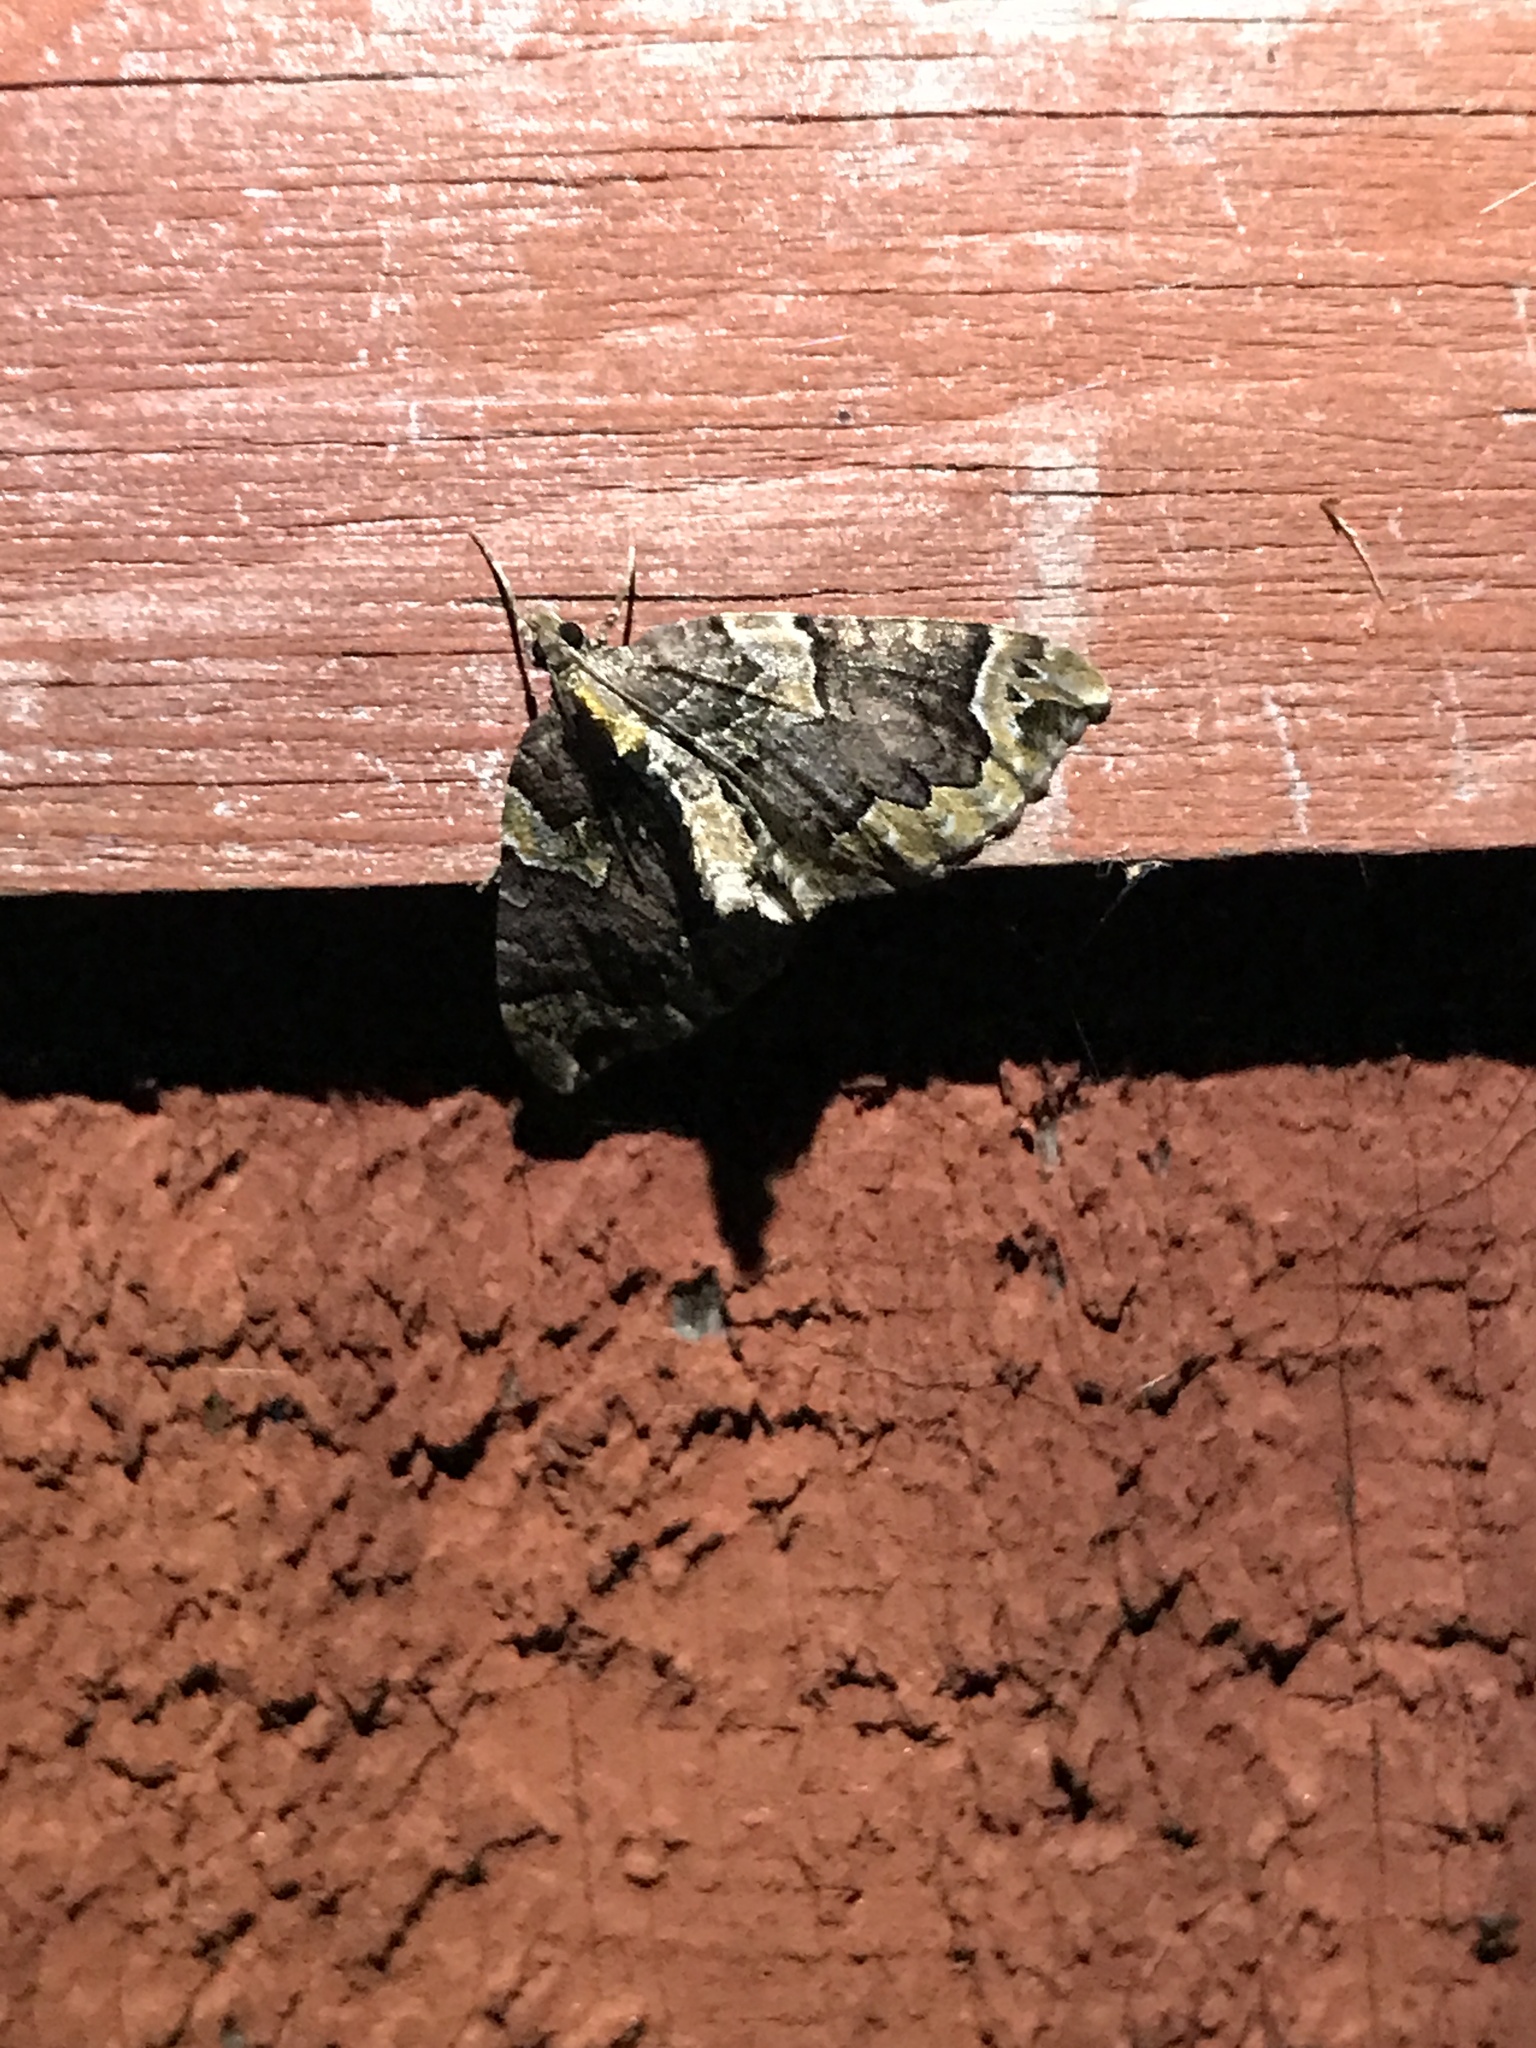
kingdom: Animalia
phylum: Arthropoda
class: Insecta
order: Lepidoptera
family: Geometridae
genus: Eulithis
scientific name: Eulithis serrataria
